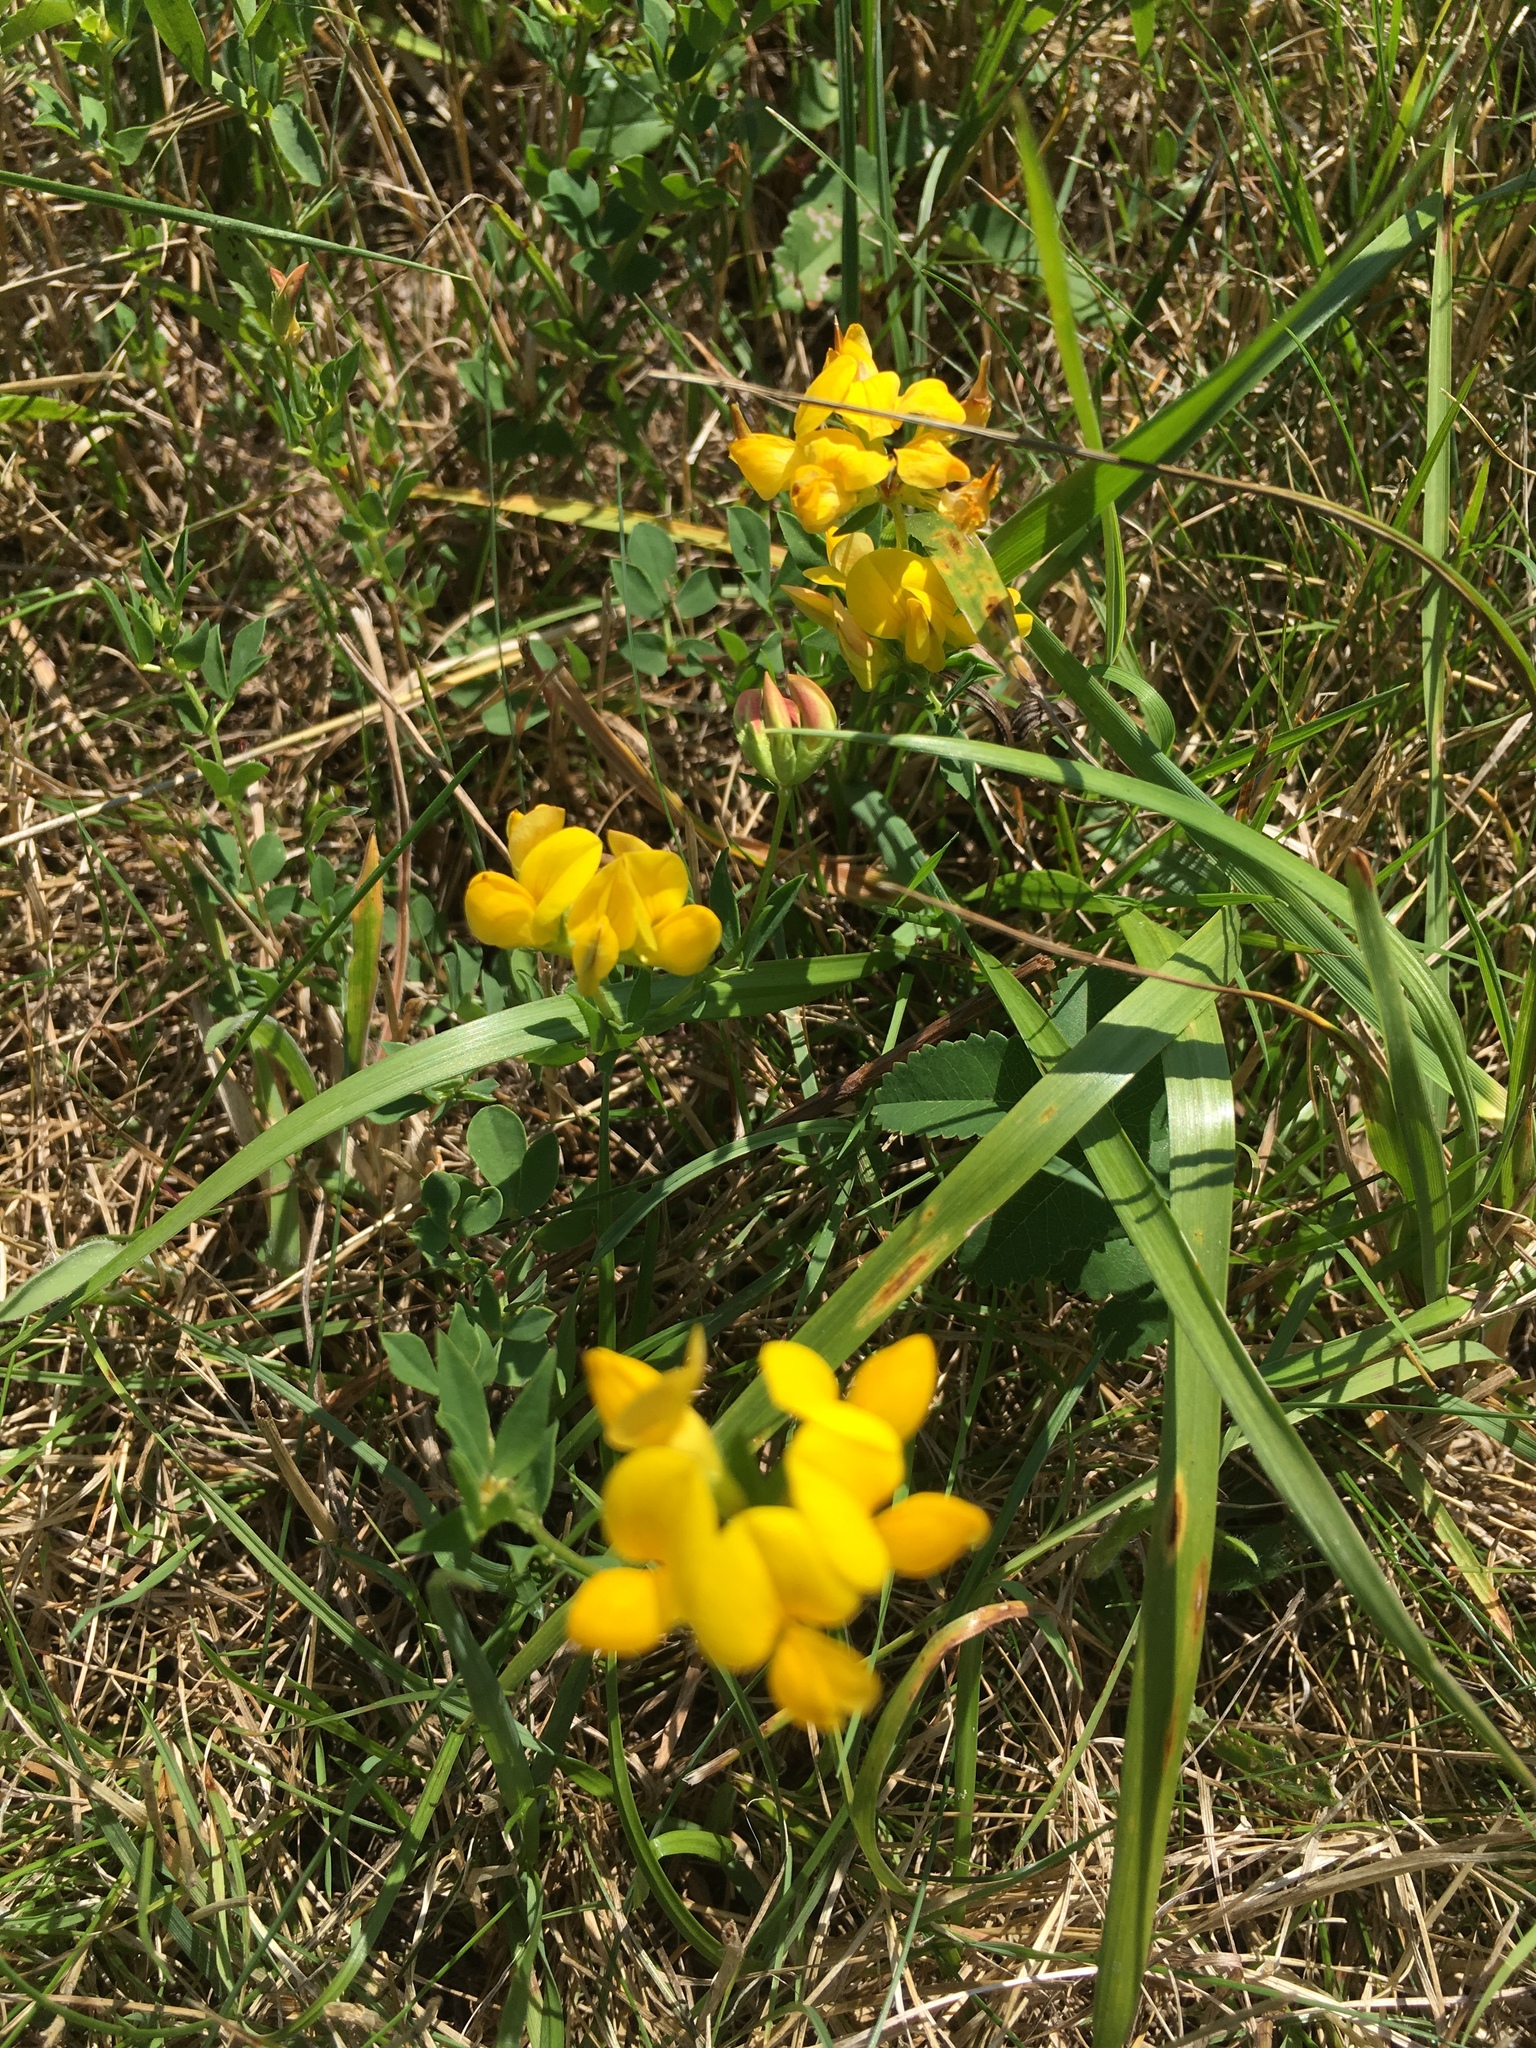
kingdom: Plantae
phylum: Tracheophyta
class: Magnoliopsida
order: Fabales
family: Fabaceae
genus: Lotus
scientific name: Lotus corniculatus
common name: Common bird's-foot-trefoil
